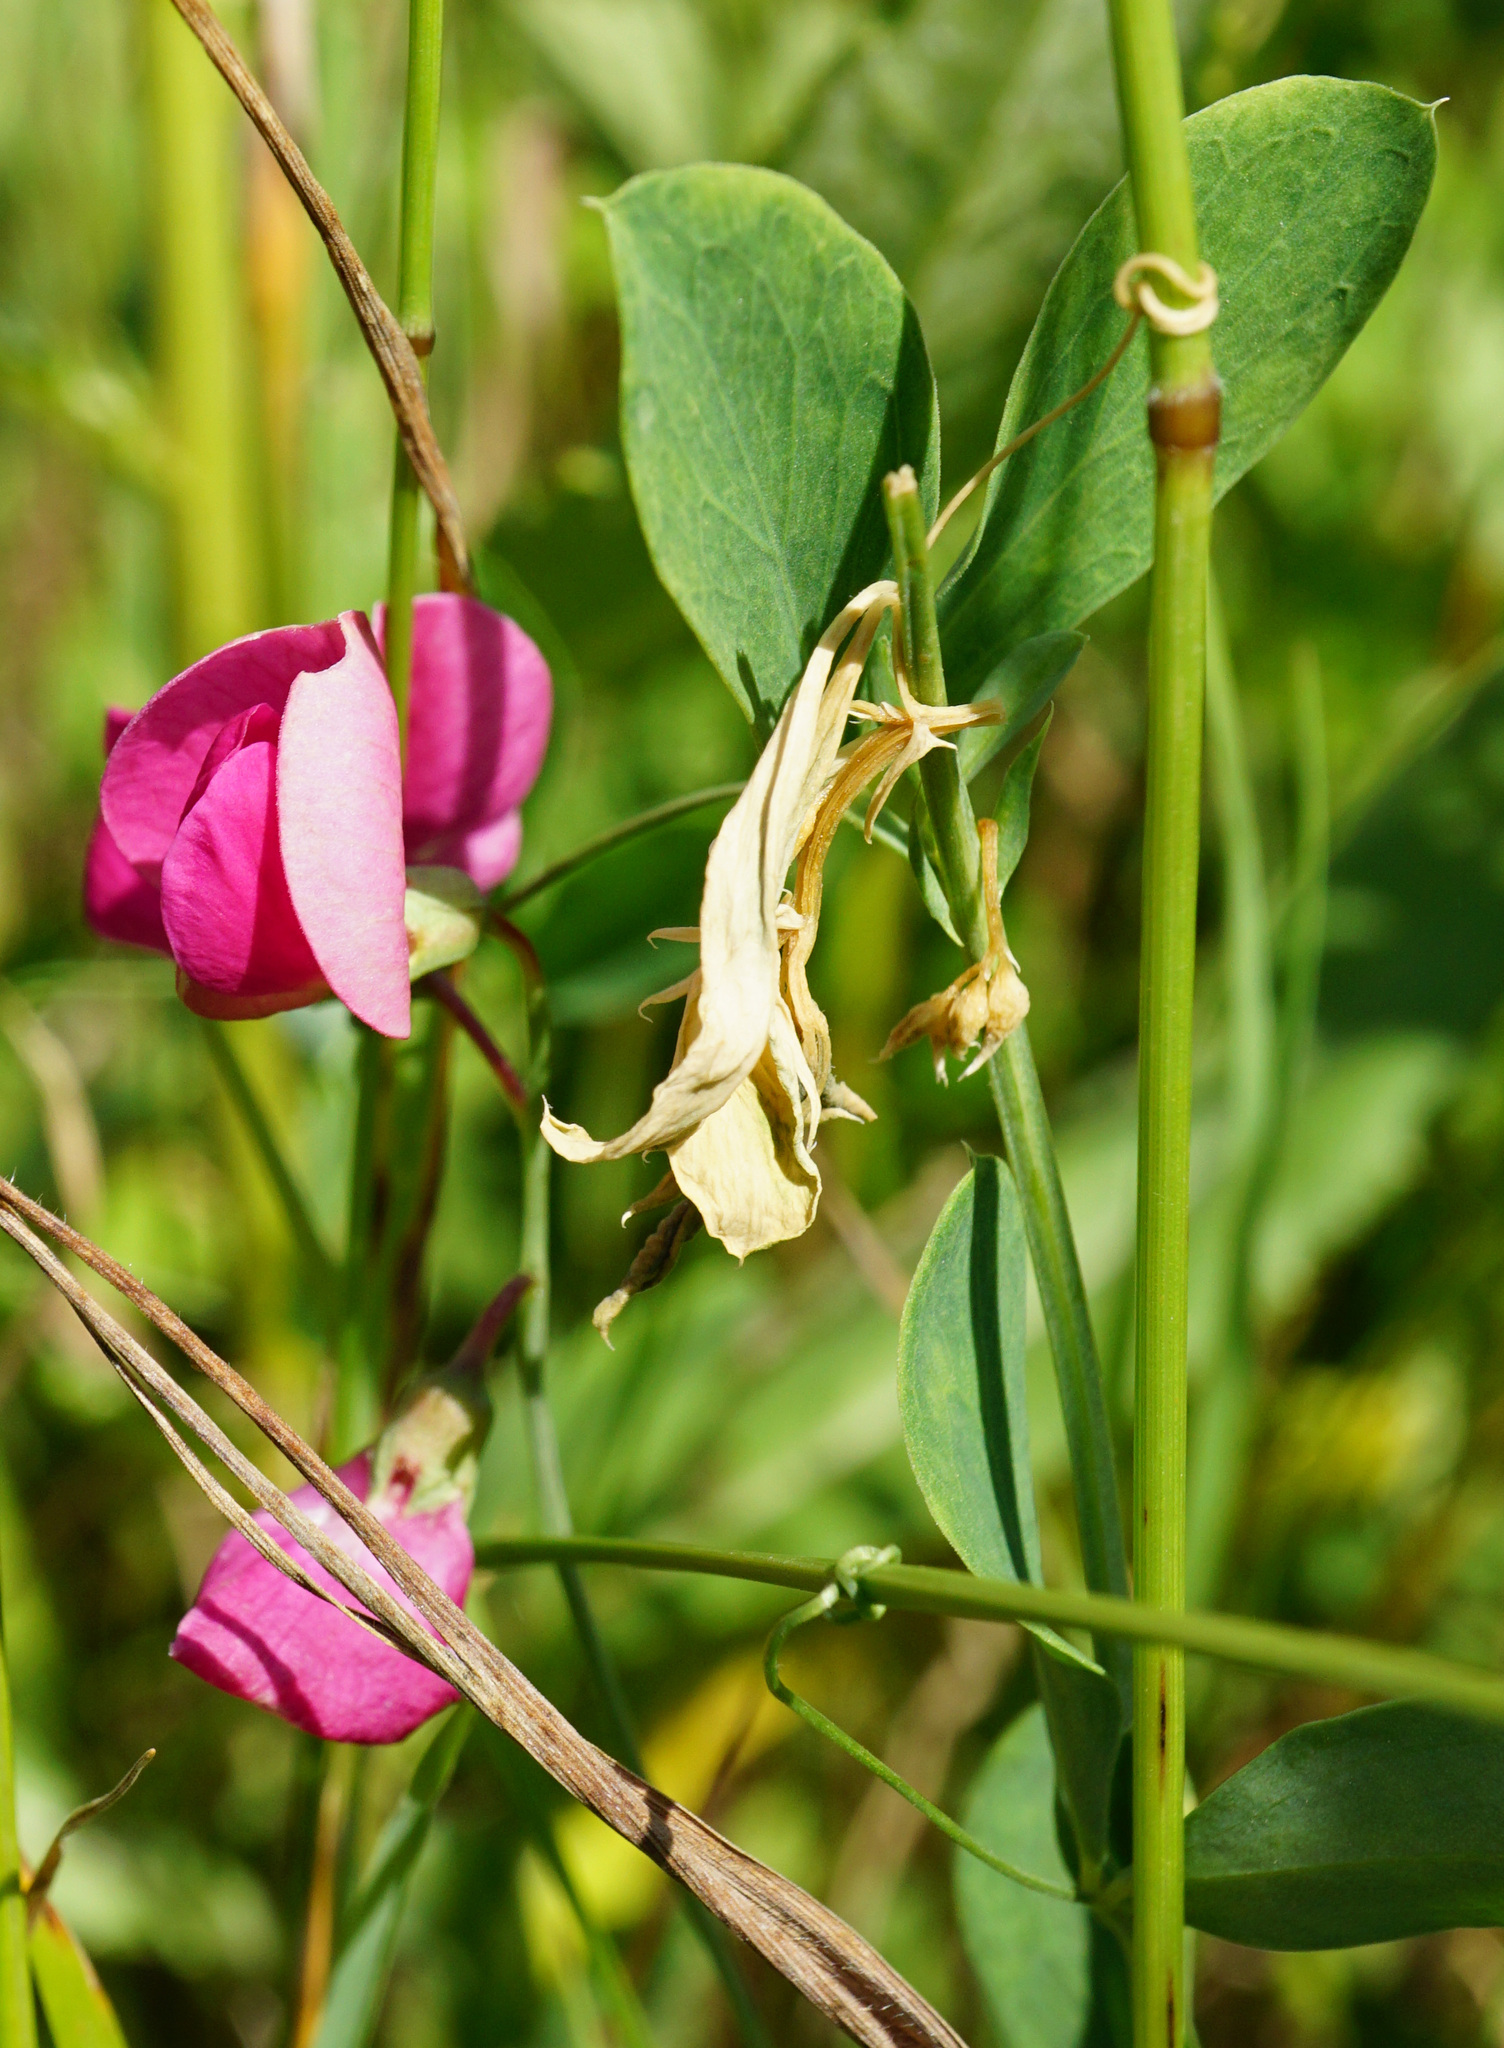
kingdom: Plantae
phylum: Tracheophyta
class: Magnoliopsida
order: Fabales
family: Fabaceae
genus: Lathyrus
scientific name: Lathyrus tuberosus
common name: Tuberous pea
